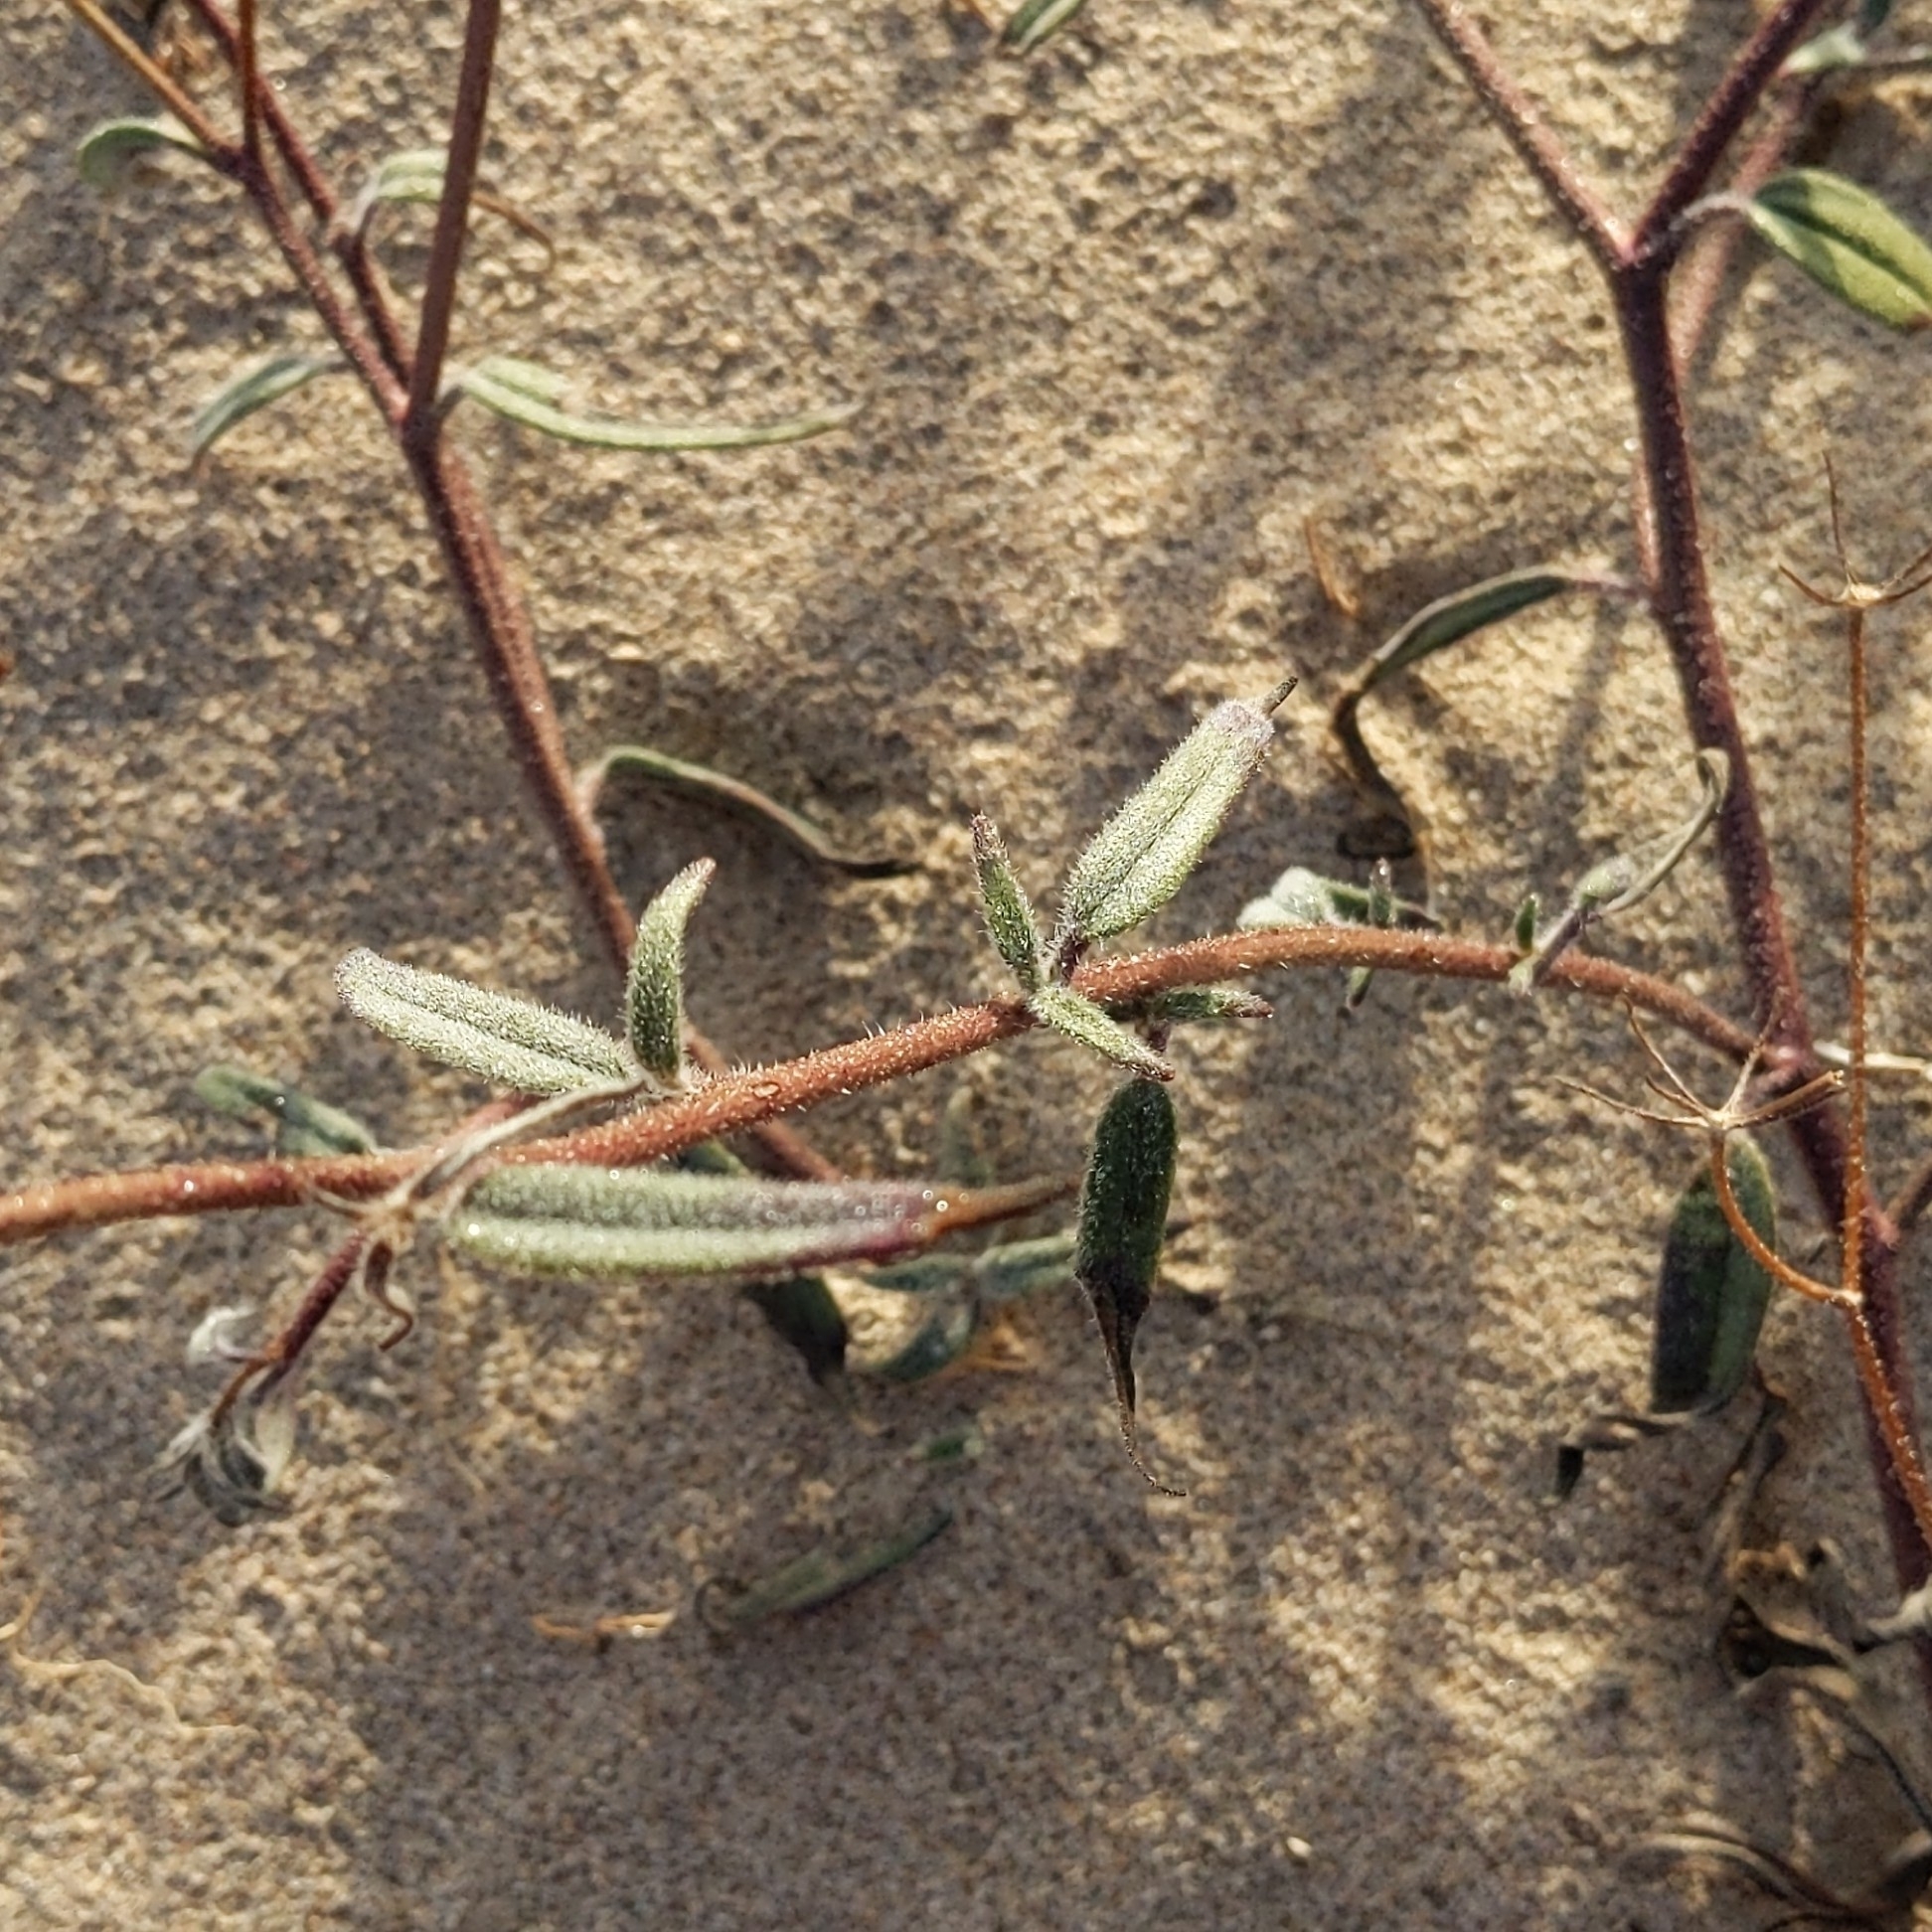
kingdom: Plantae
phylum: Tracheophyta
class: Magnoliopsida
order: Asterales
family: Asteraceae
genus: Palafoxia
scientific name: Palafoxia arida
